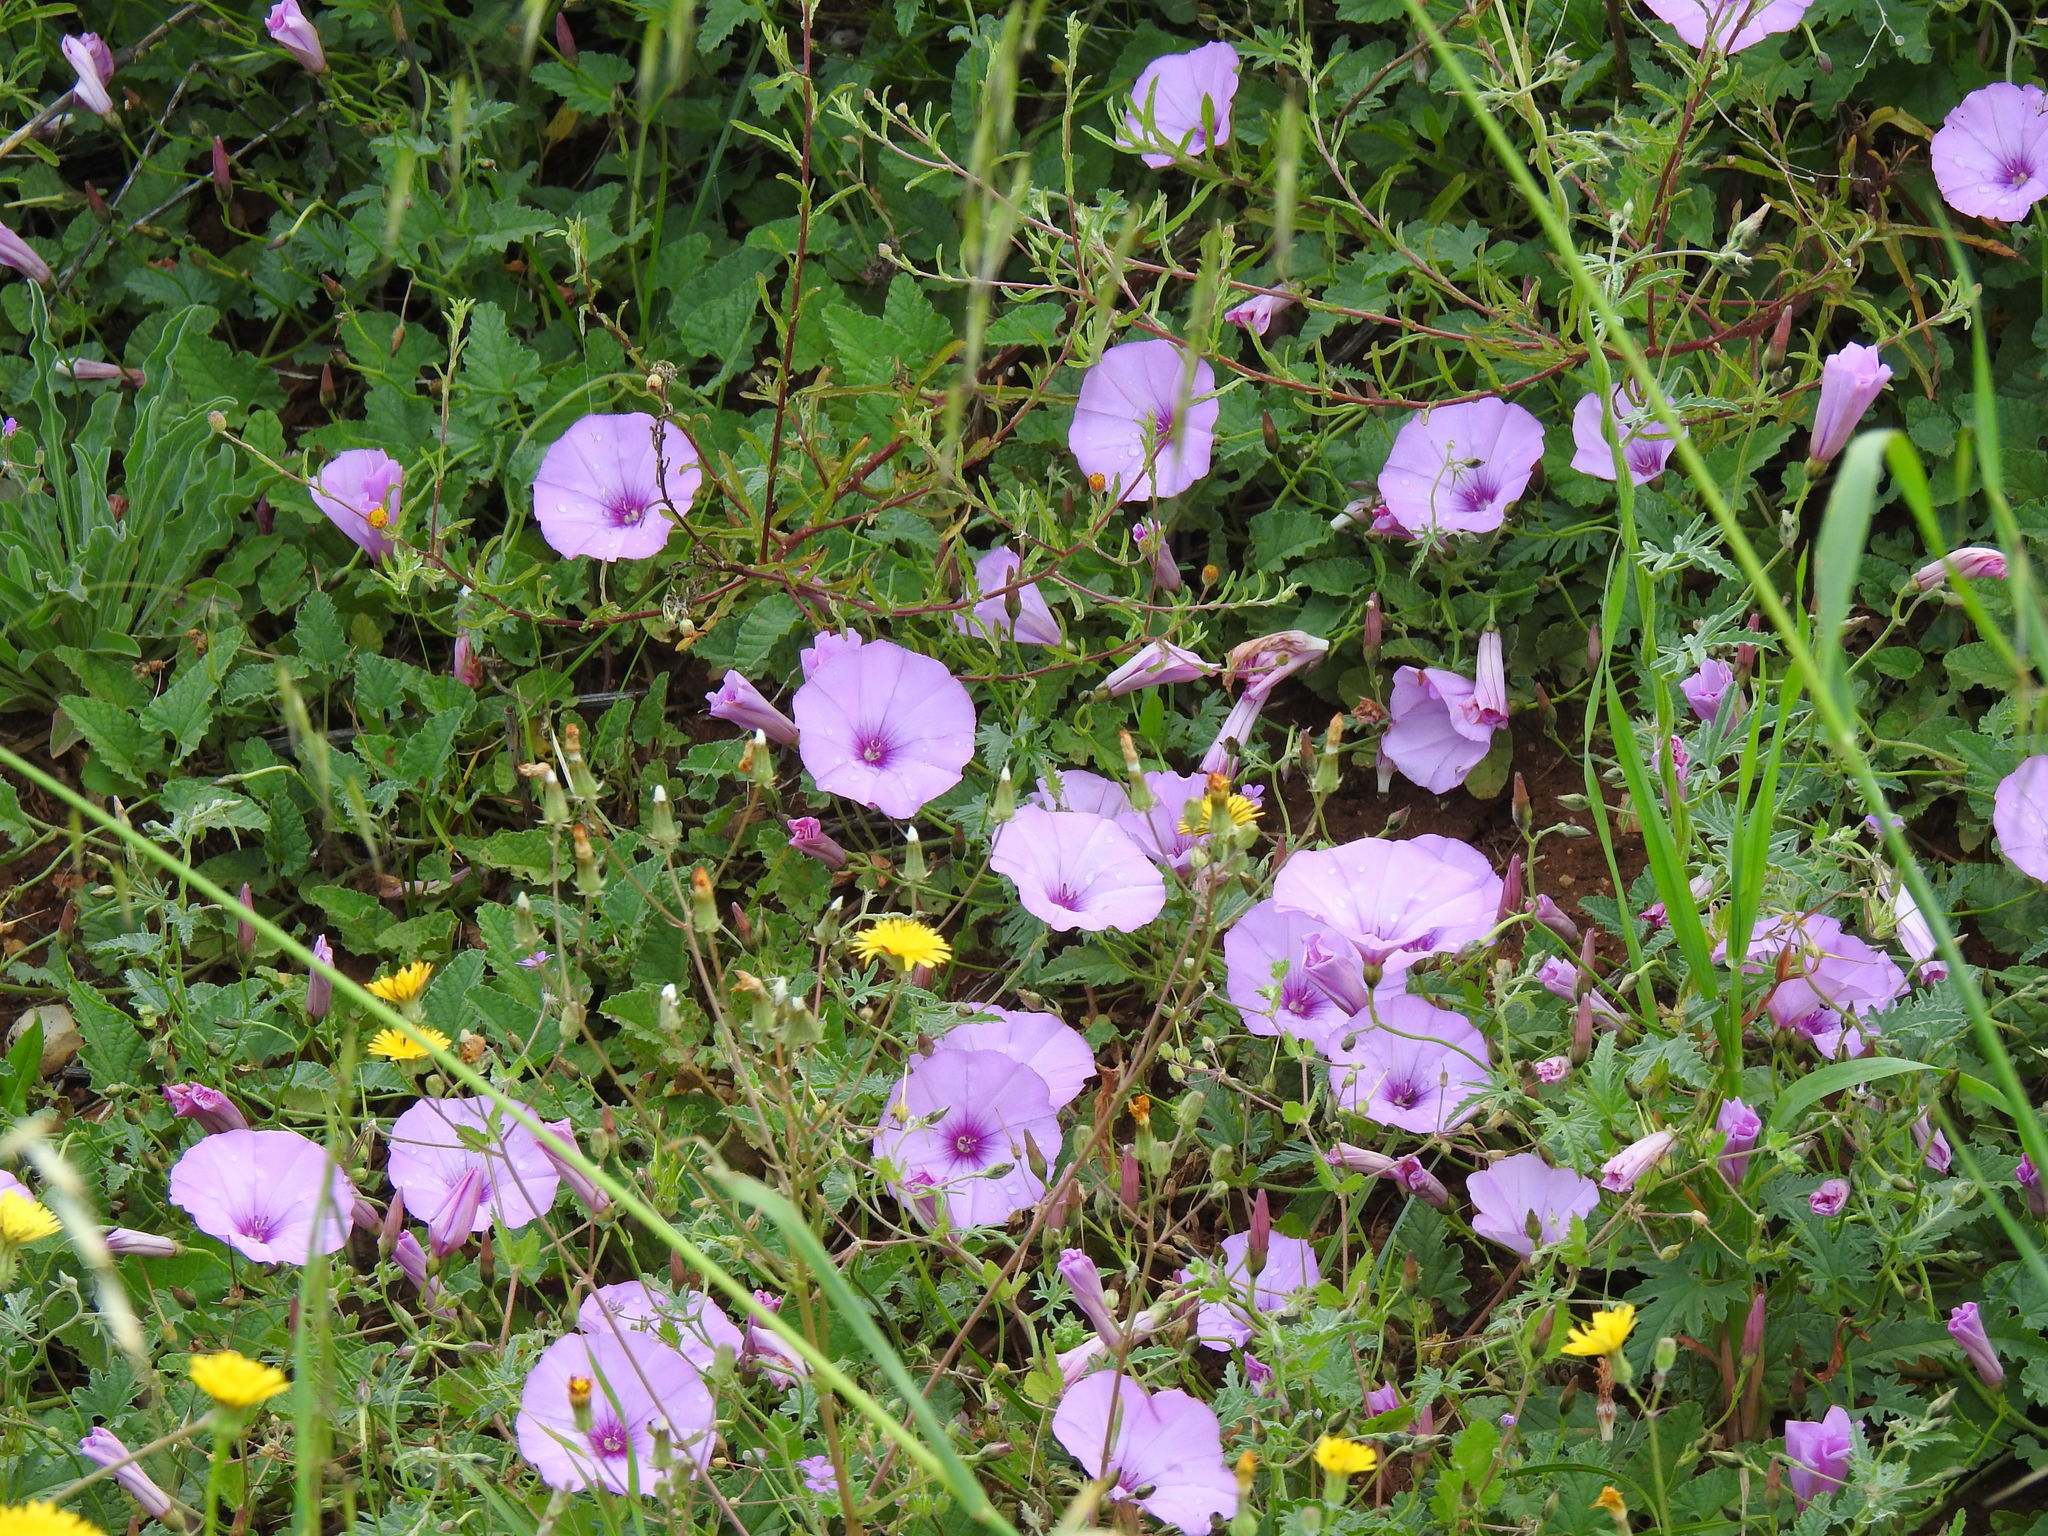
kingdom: Plantae
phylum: Tracheophyta
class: Magnoliopsida
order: Solanales
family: Convolvulaceae
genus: Convolvulus
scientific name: Convolvulus althaeoides
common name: Mallow bindweed
